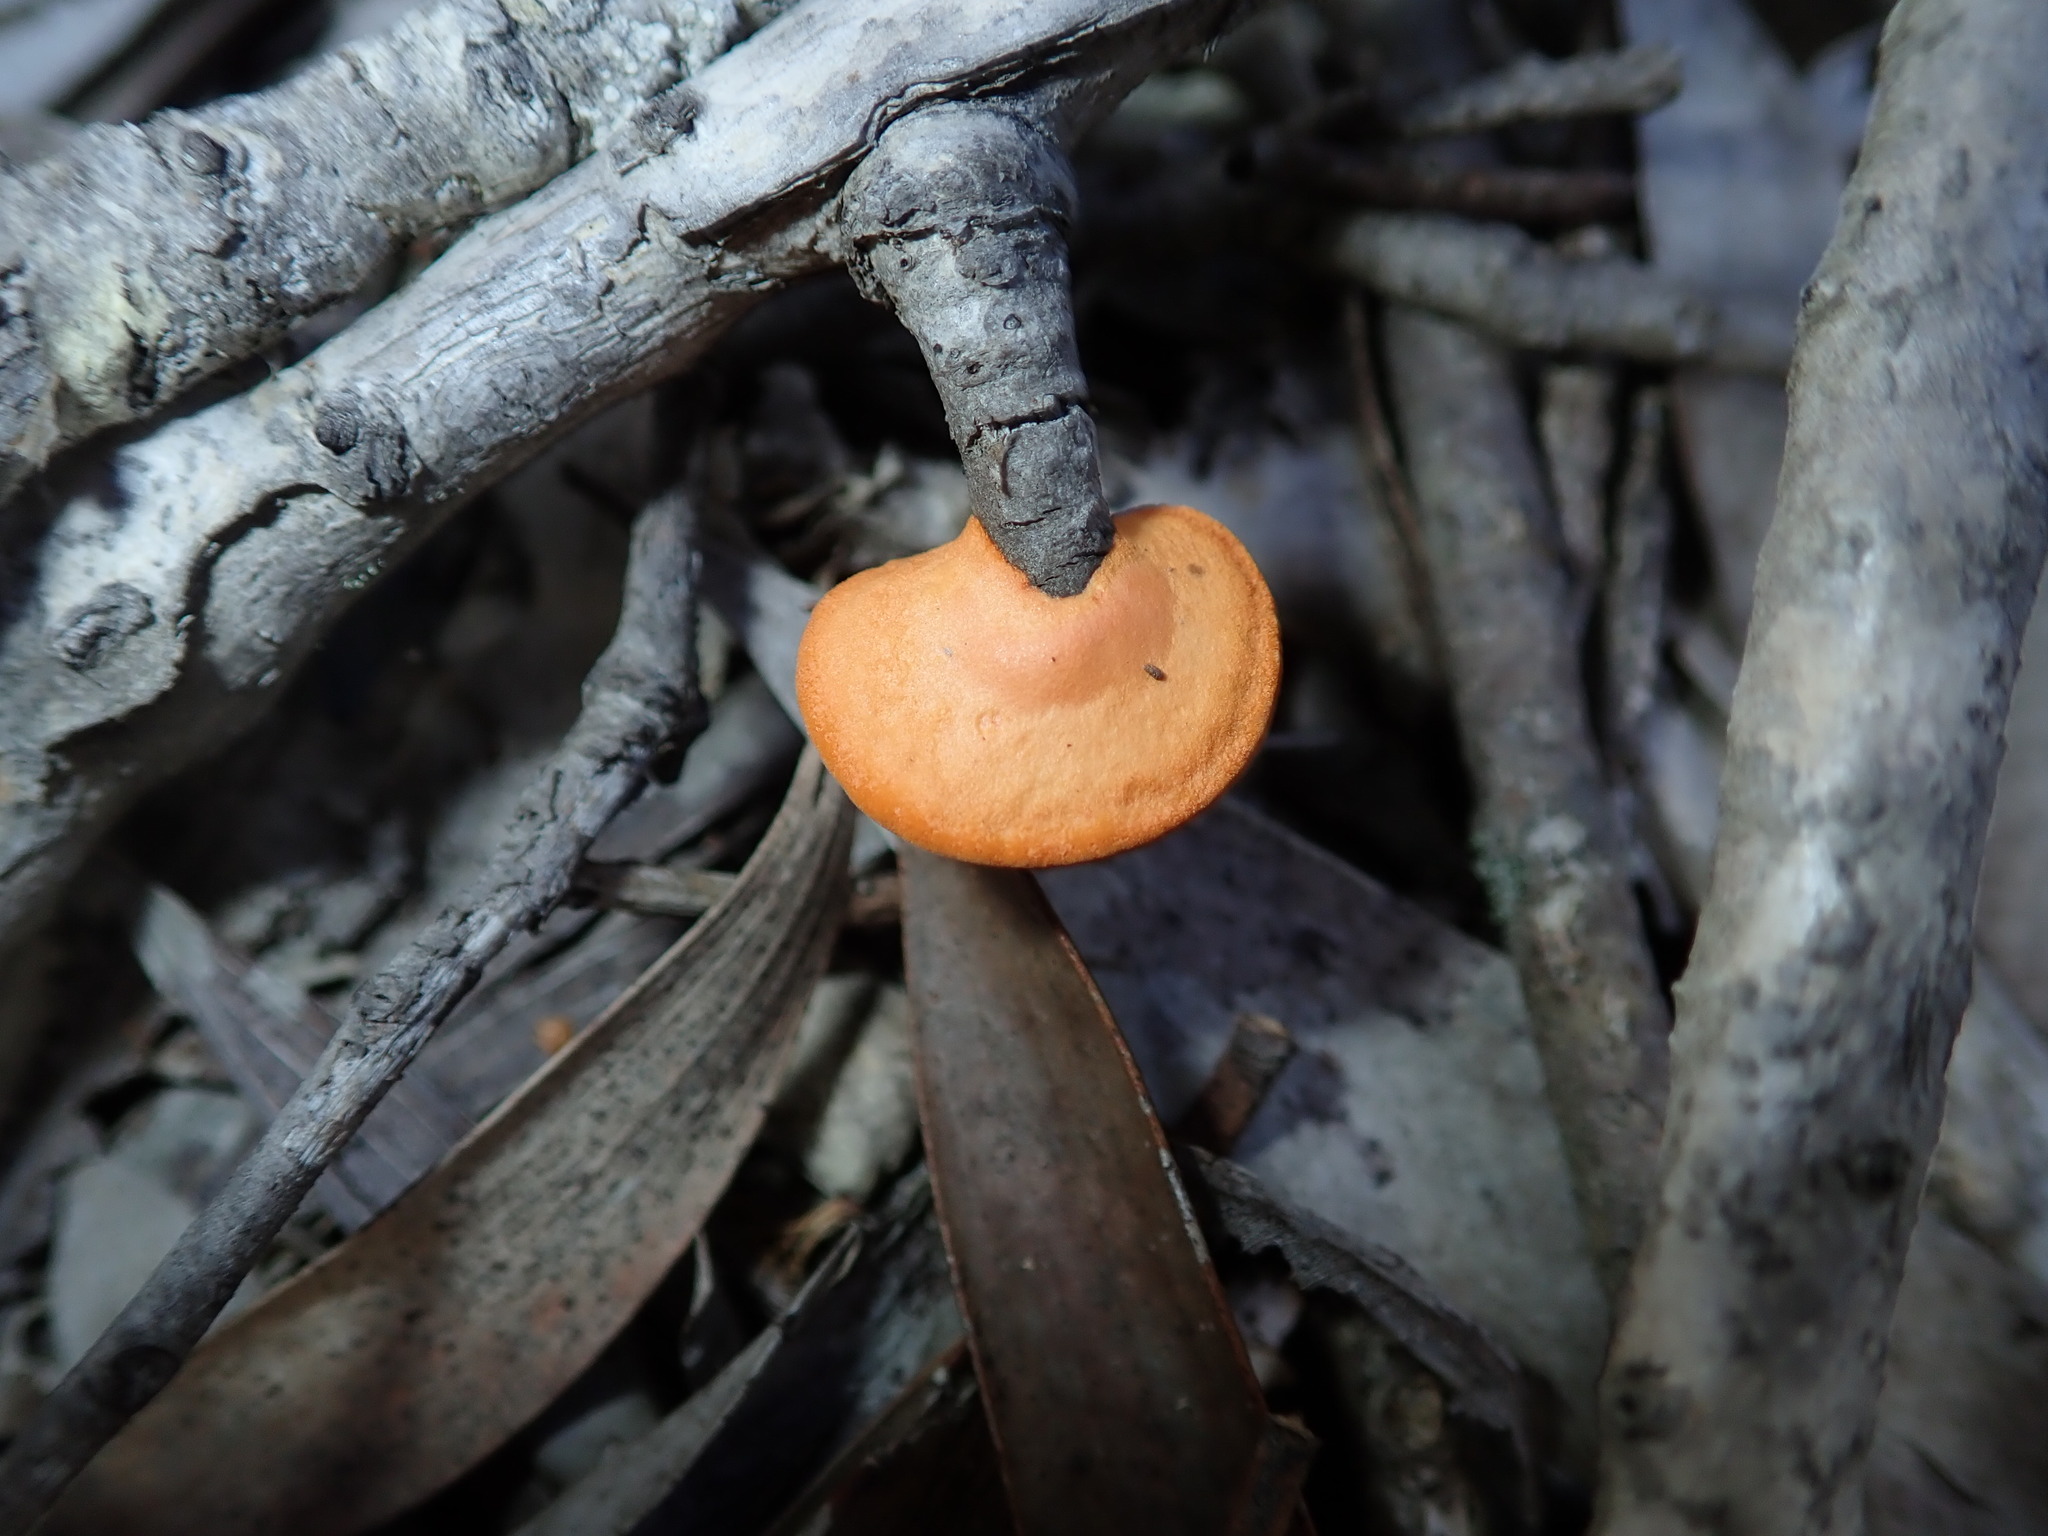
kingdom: Fungi
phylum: Basidiomycota
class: Agaricomycetes
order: Polyporales
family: Polyporaceae
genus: Trametes
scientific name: Trametes coccinea
